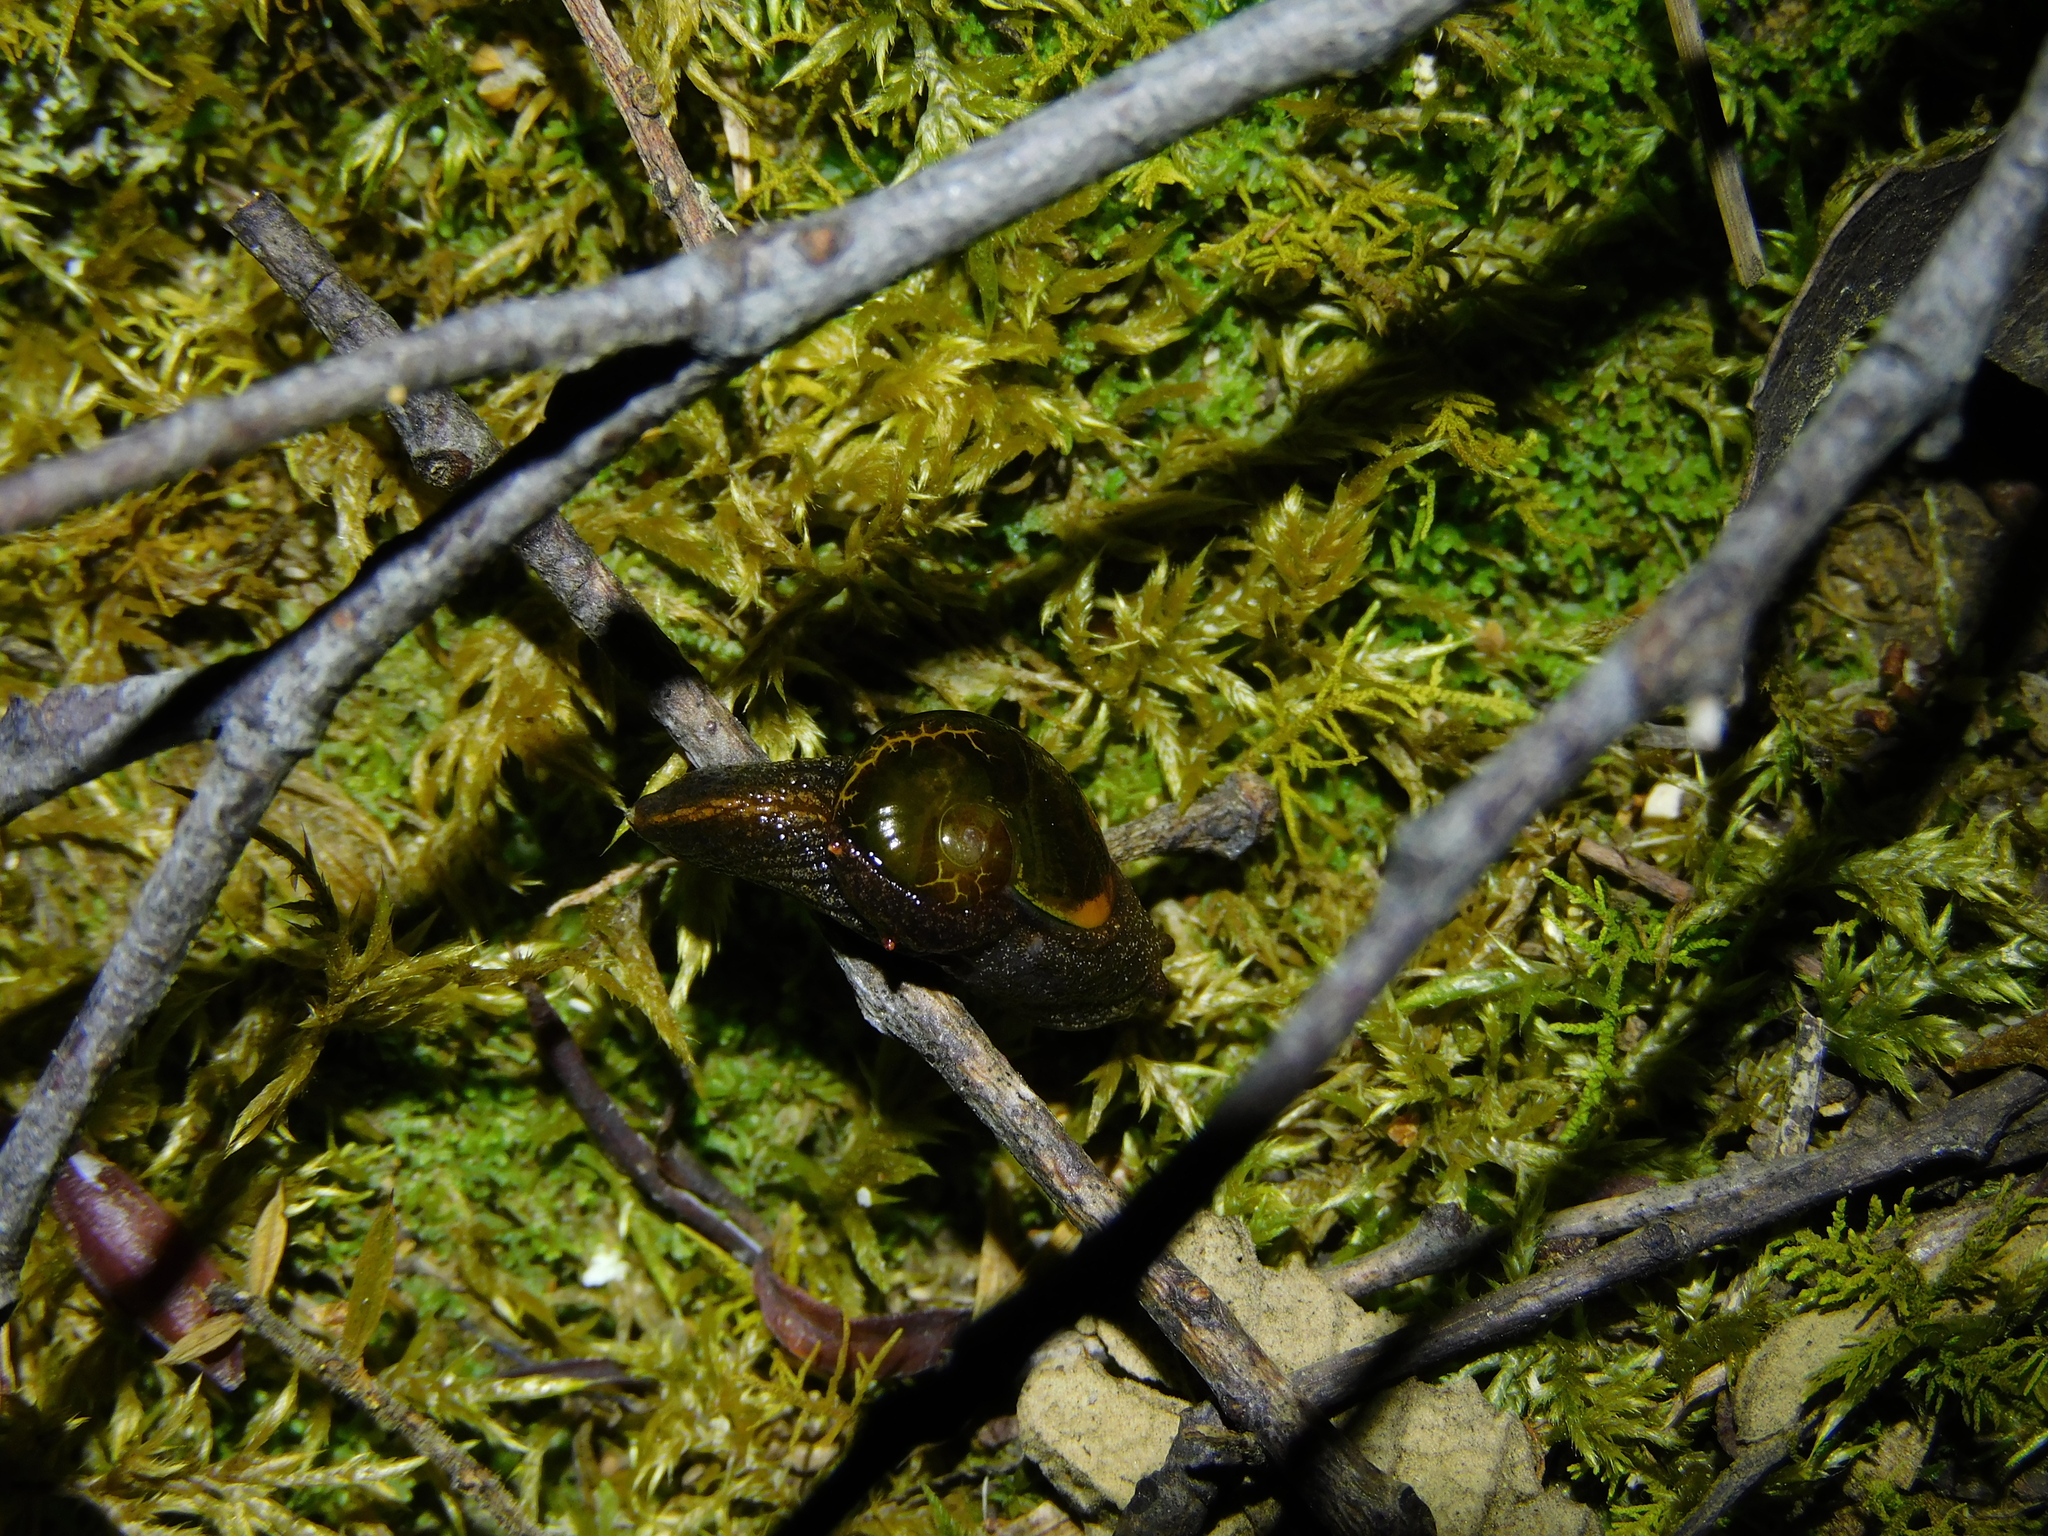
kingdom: Animalia
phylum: Mollusca
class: Gastropoda
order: Stylommatophora
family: Helicarionidae
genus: Helicarion
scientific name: Helicarion cuvieri
